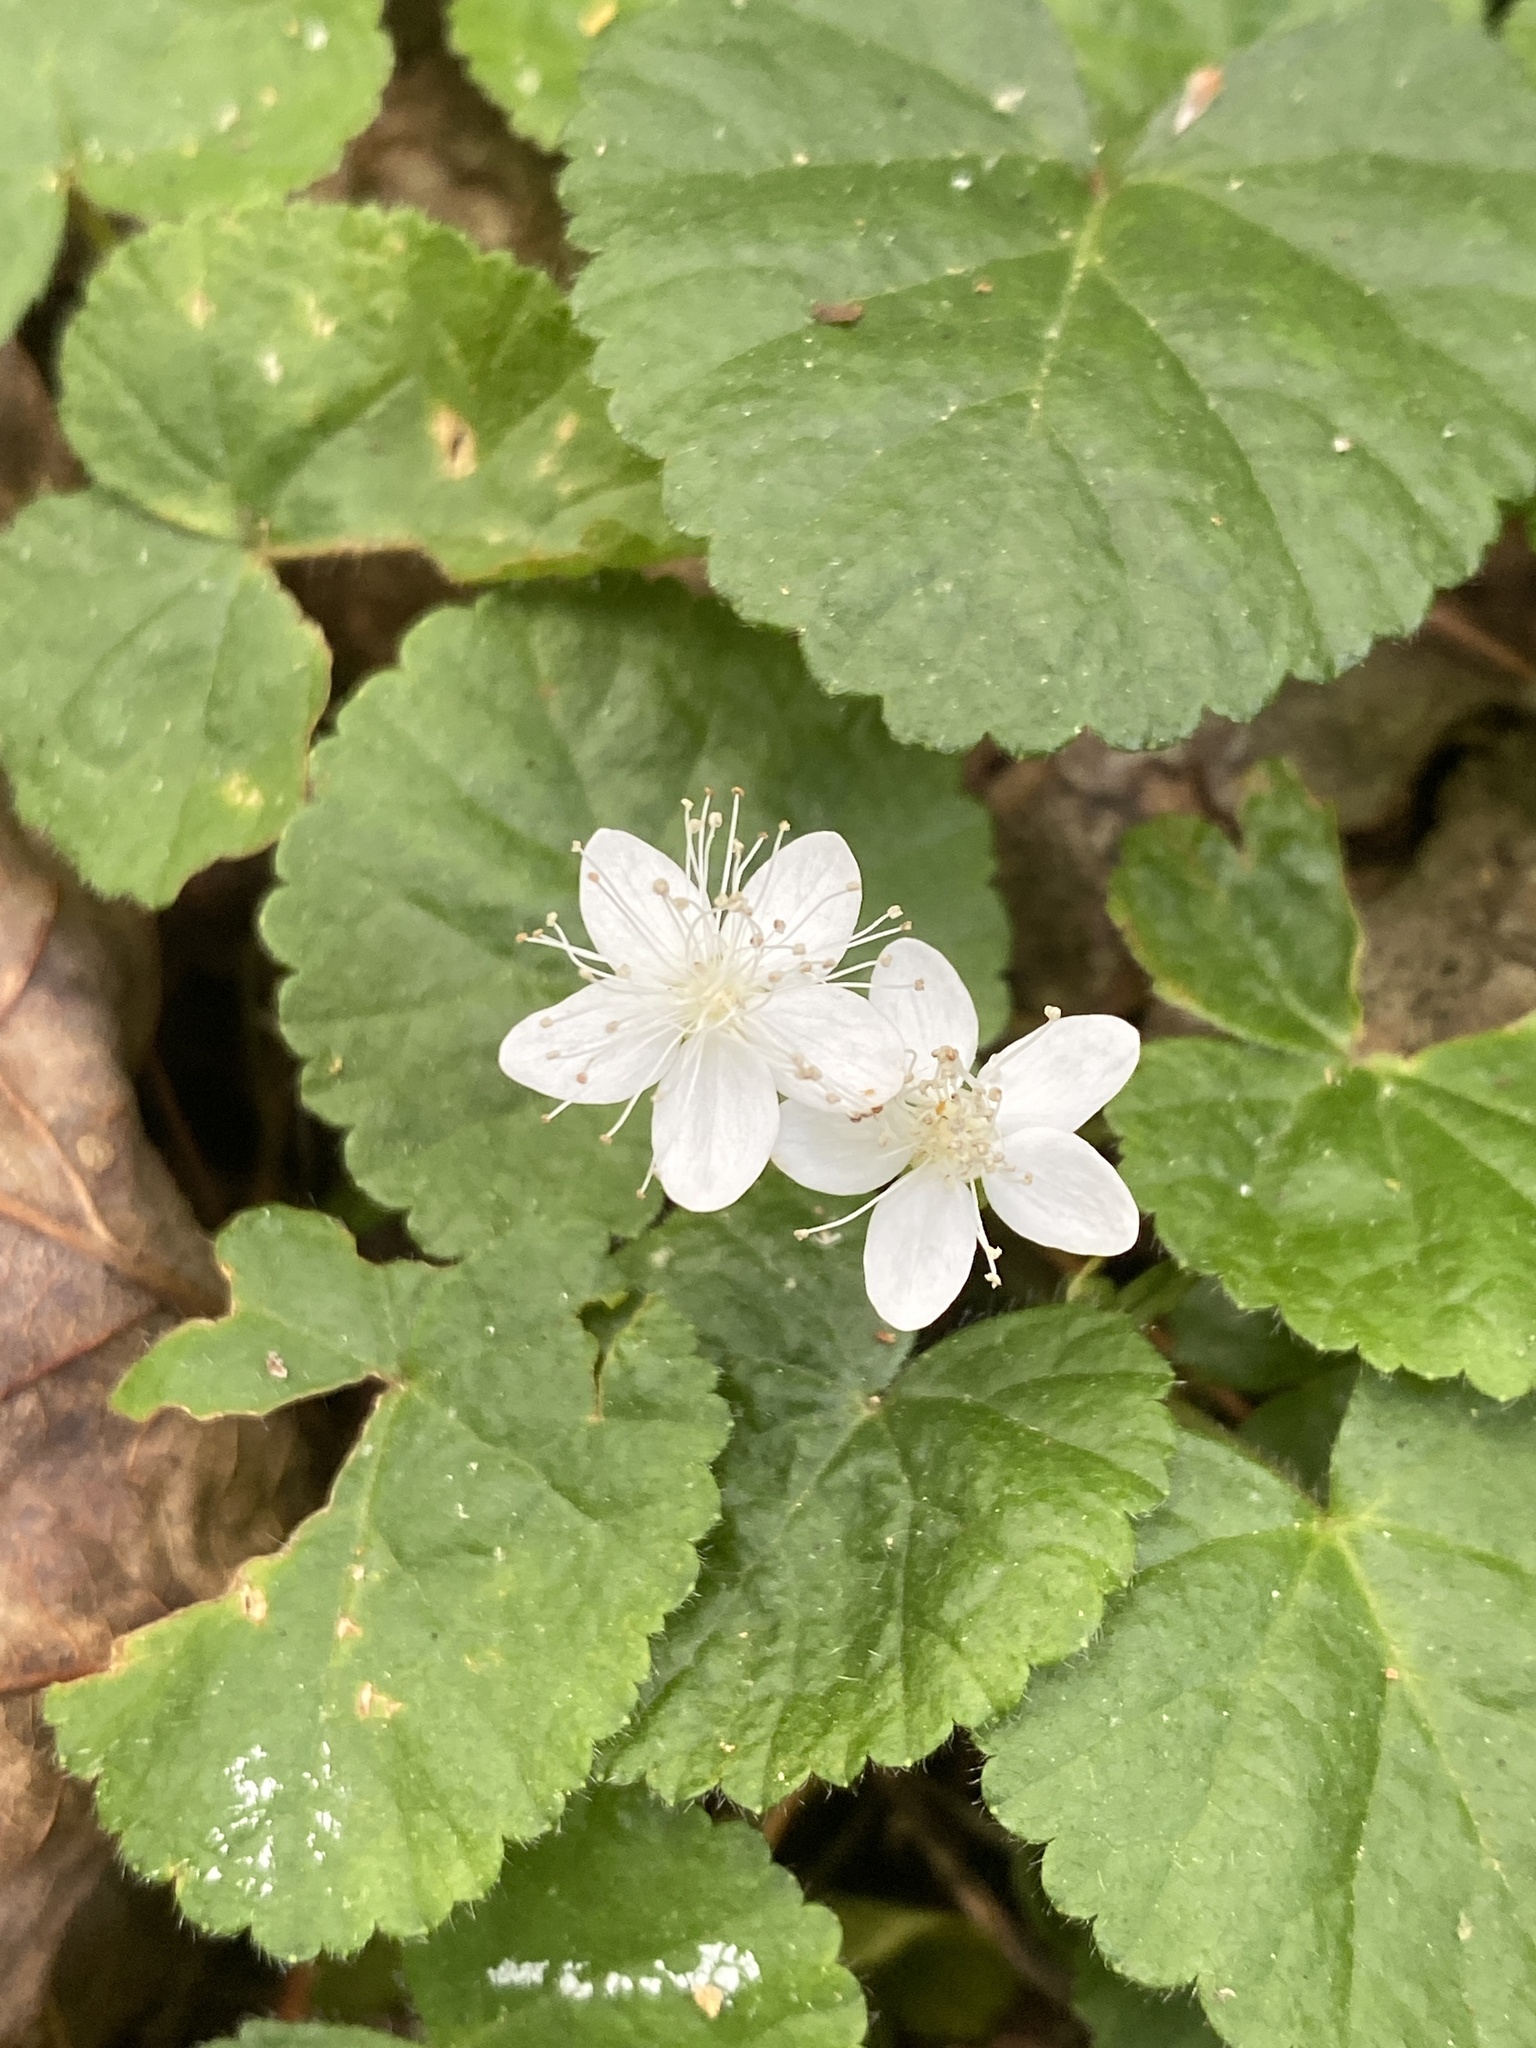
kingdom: Plantae
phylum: Tracheophyta
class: Magnoliopsida
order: Rosales
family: Rosaceae
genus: Dalibarda
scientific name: Dalibarda repens
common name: Dewdrop
